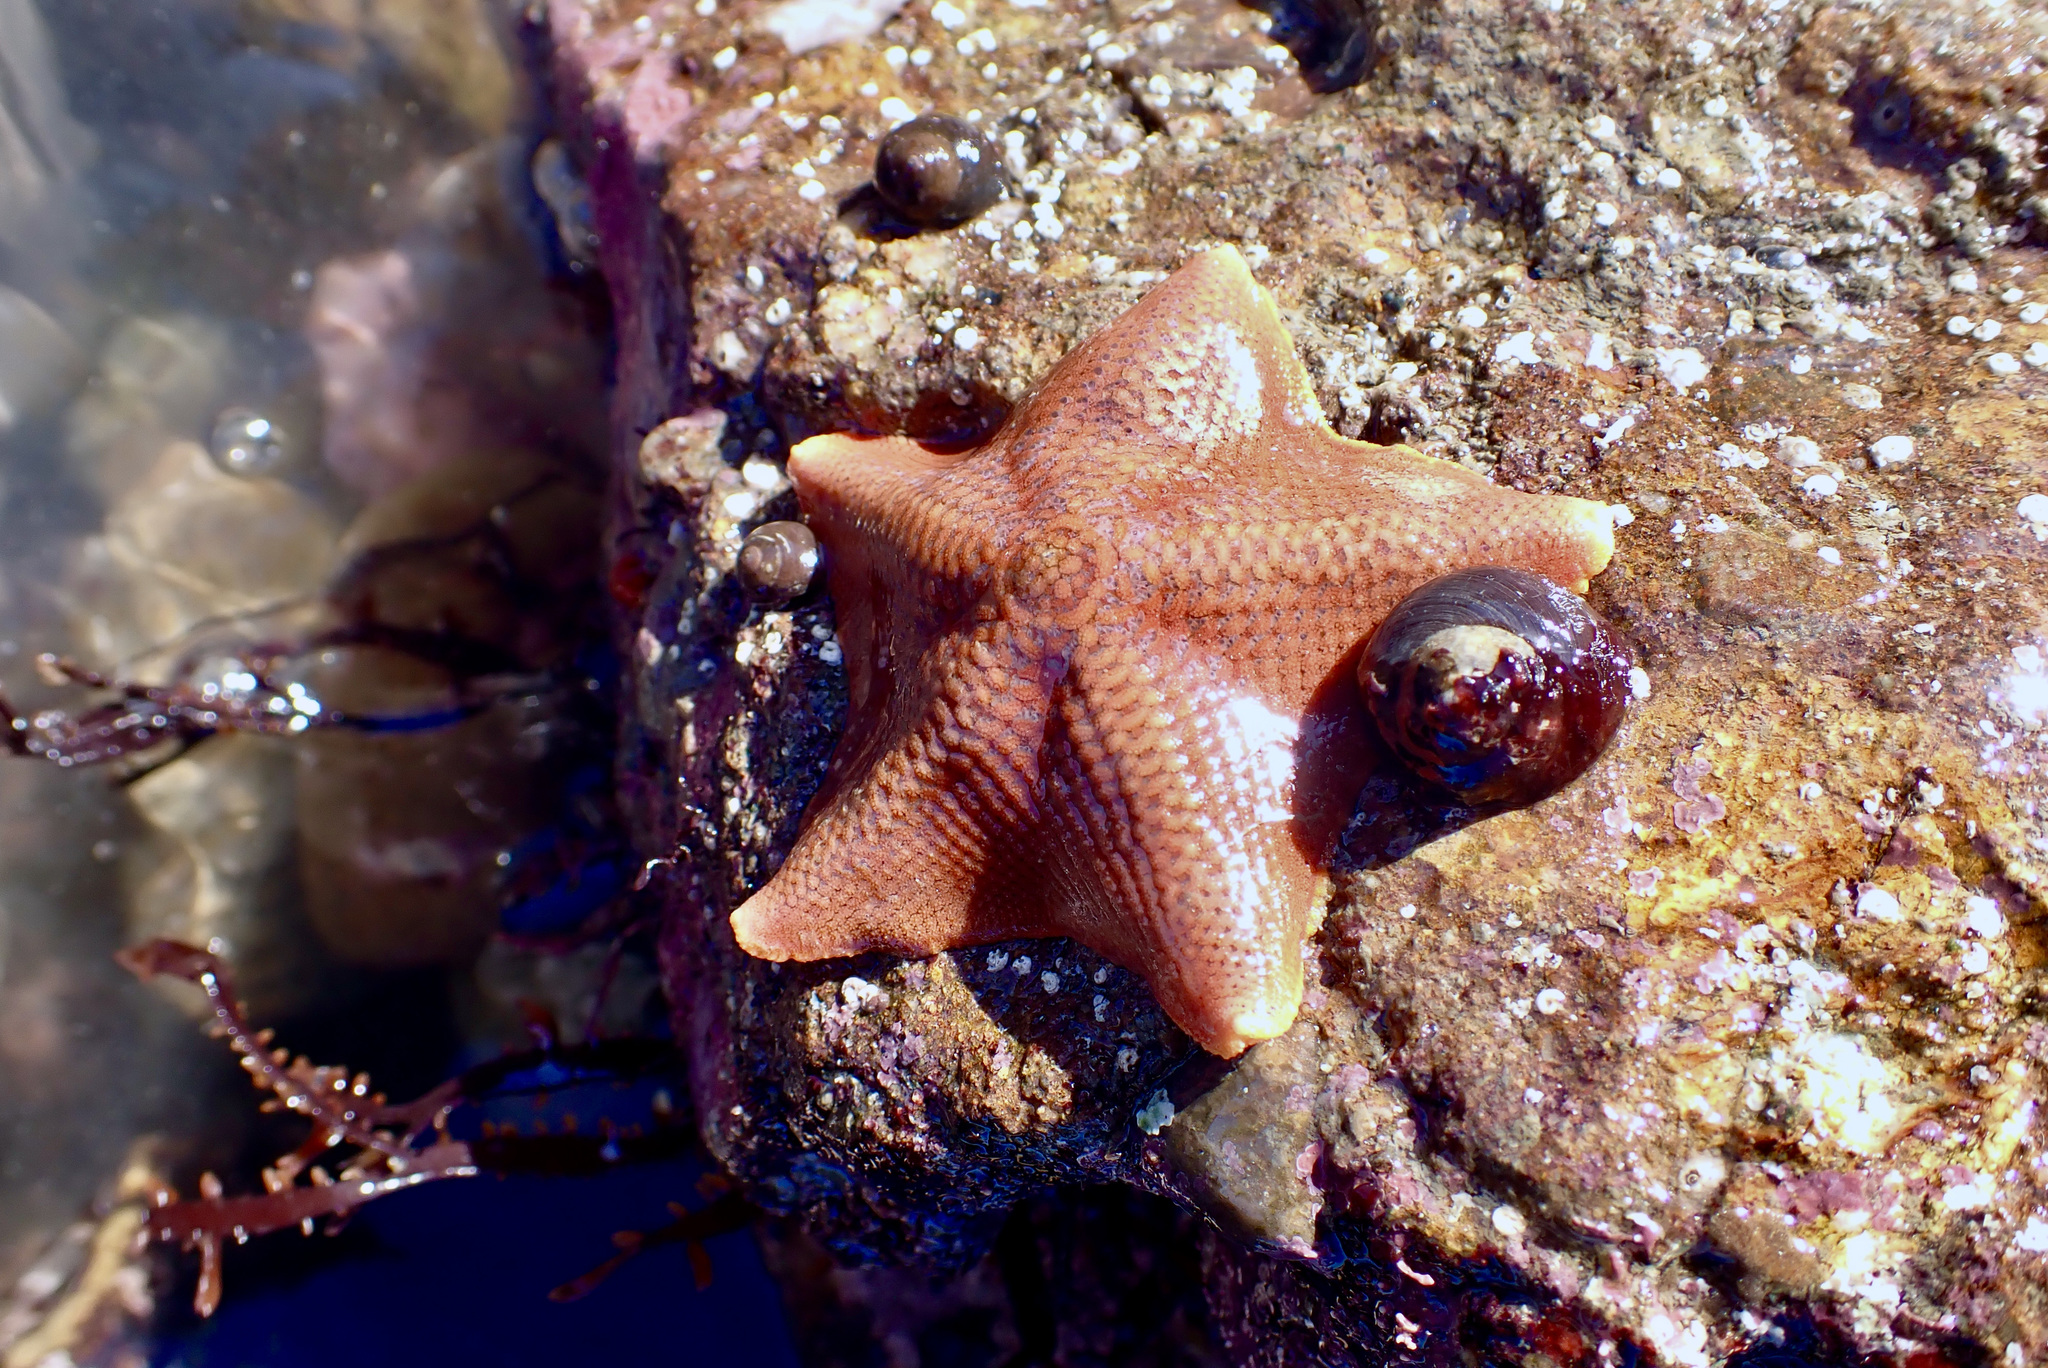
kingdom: Animalia
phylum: Echinodermata
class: Asteroidea
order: Valvatida
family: Asterinidae
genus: Patiria
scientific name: Patiria miniata
